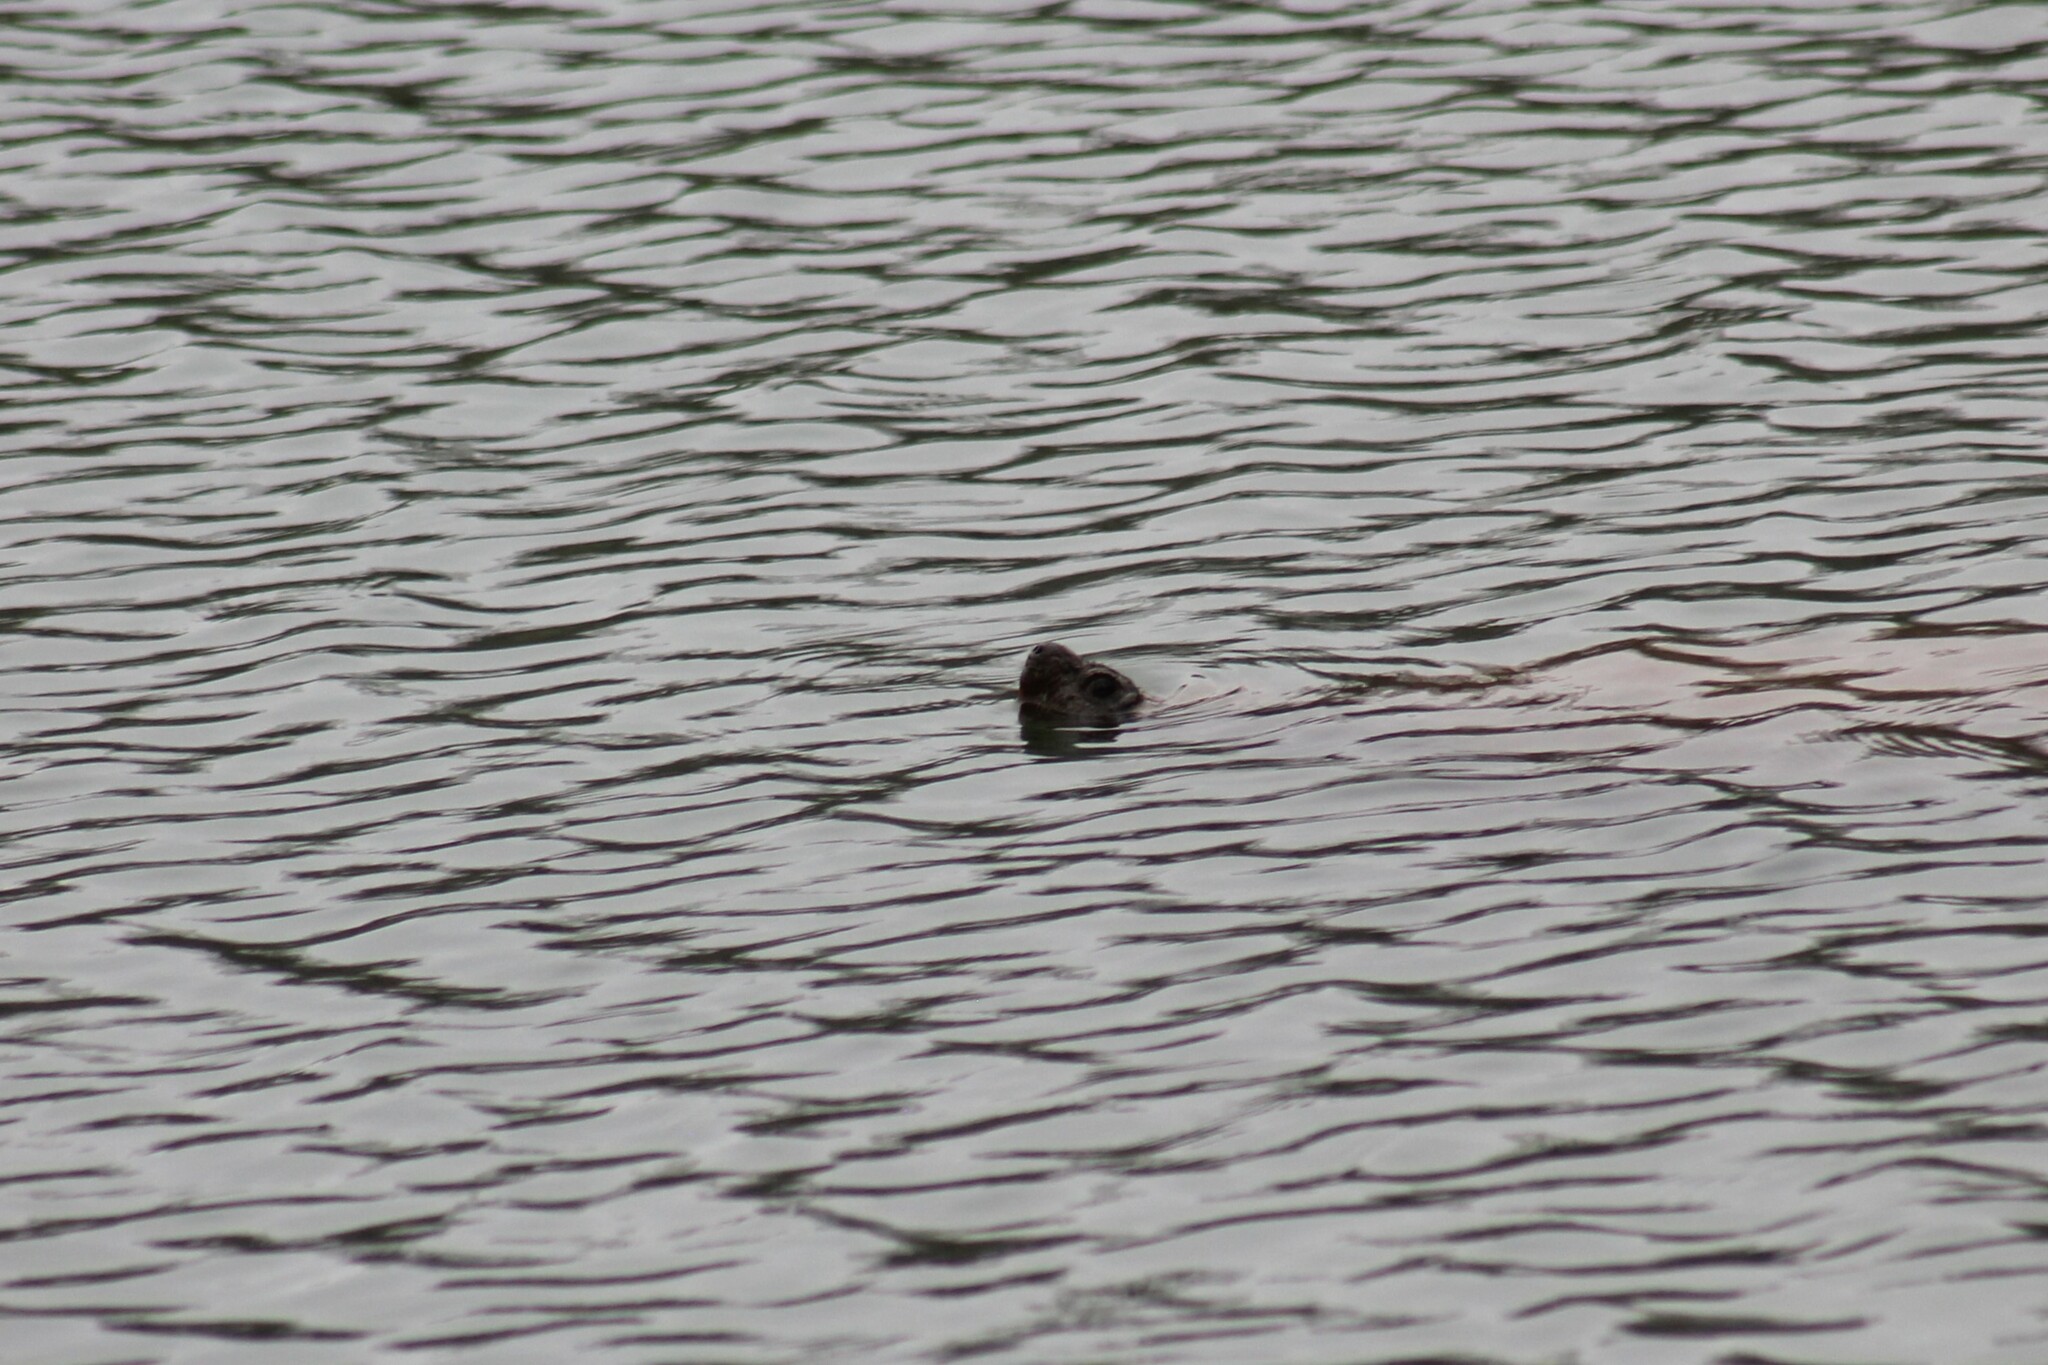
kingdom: Animalia
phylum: Chordata
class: Testudines
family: Chelydridae
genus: Chelydra
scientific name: Chelydra serpentina
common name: Common snapping turtle
